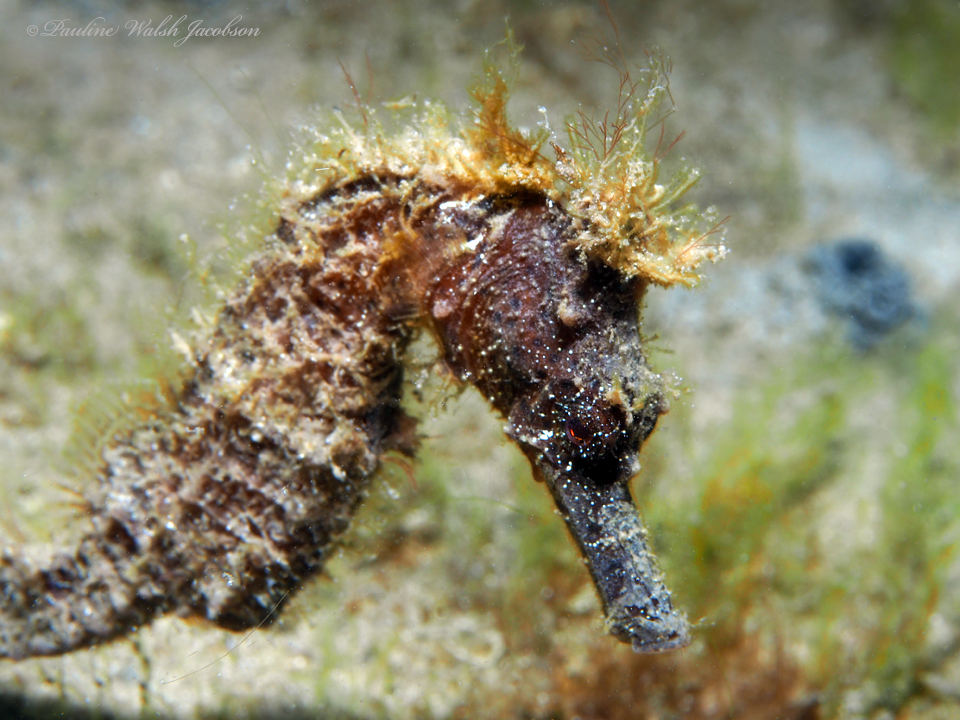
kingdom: Animalia
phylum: Chordata
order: Syngnathiformes
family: Syngnathidae
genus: Hippocampus
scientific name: Hippocampus reidi
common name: Slender seahorse
